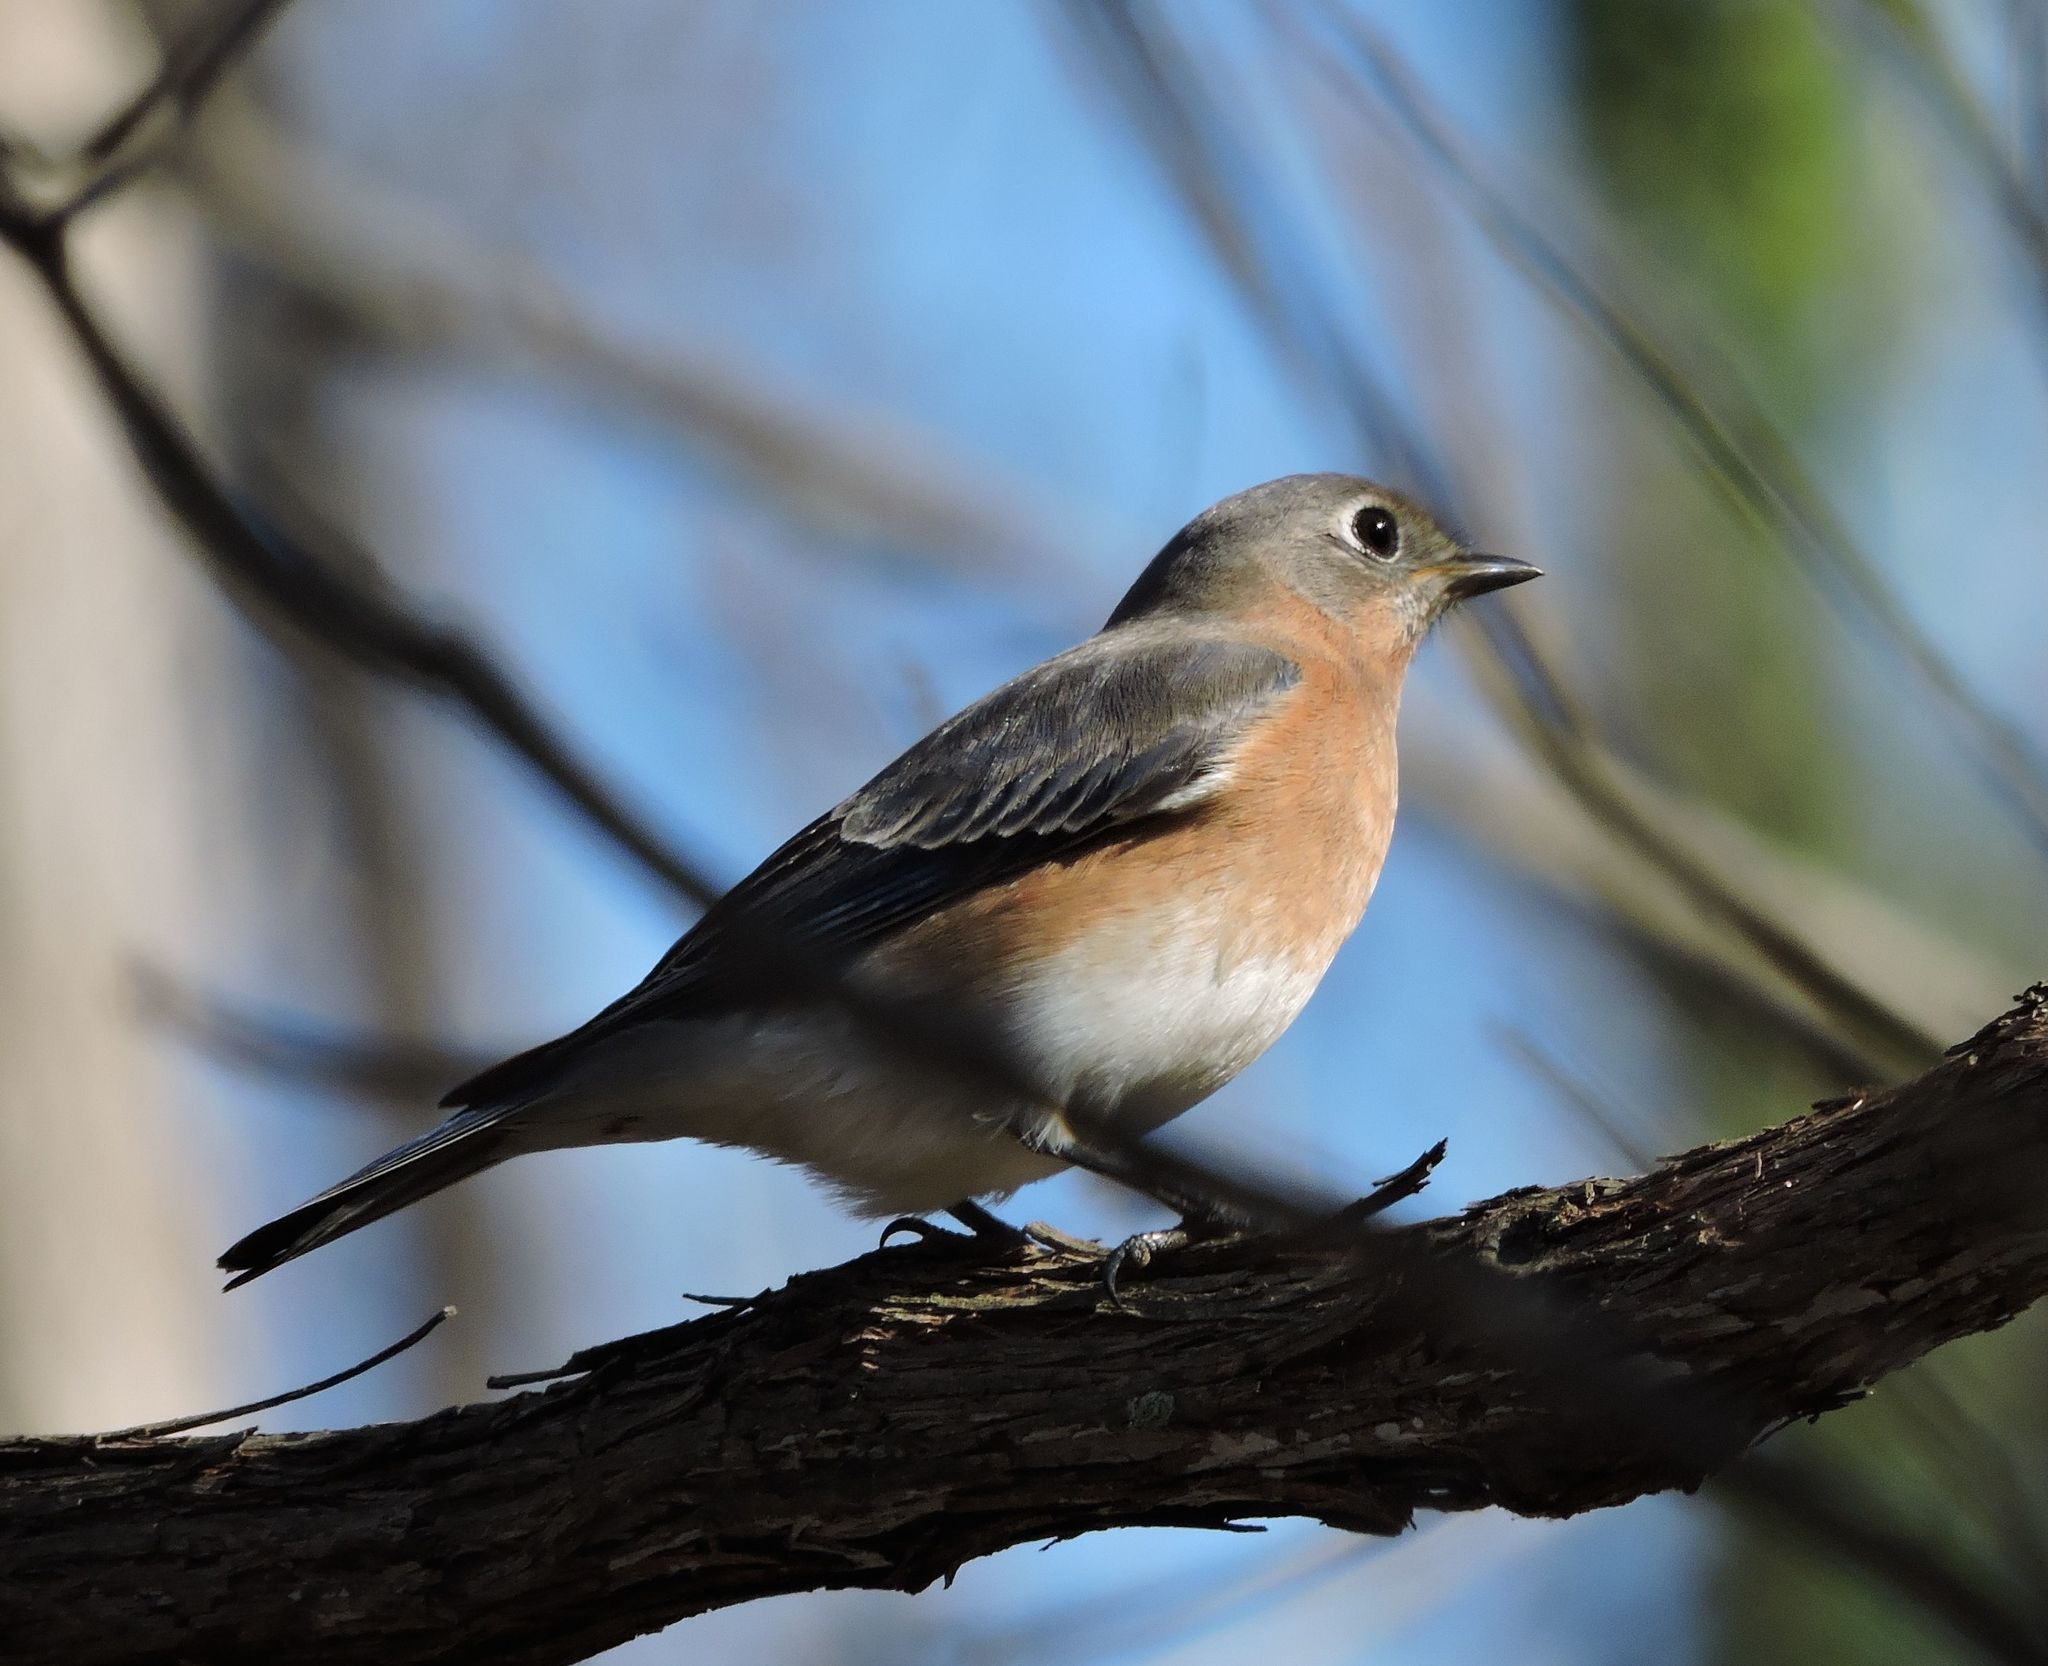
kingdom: Animalia
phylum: Chordata
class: Aves
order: Passeriformes
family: Turdidae
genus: Sialia
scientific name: Sialia sialis
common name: Eastern bluebird
